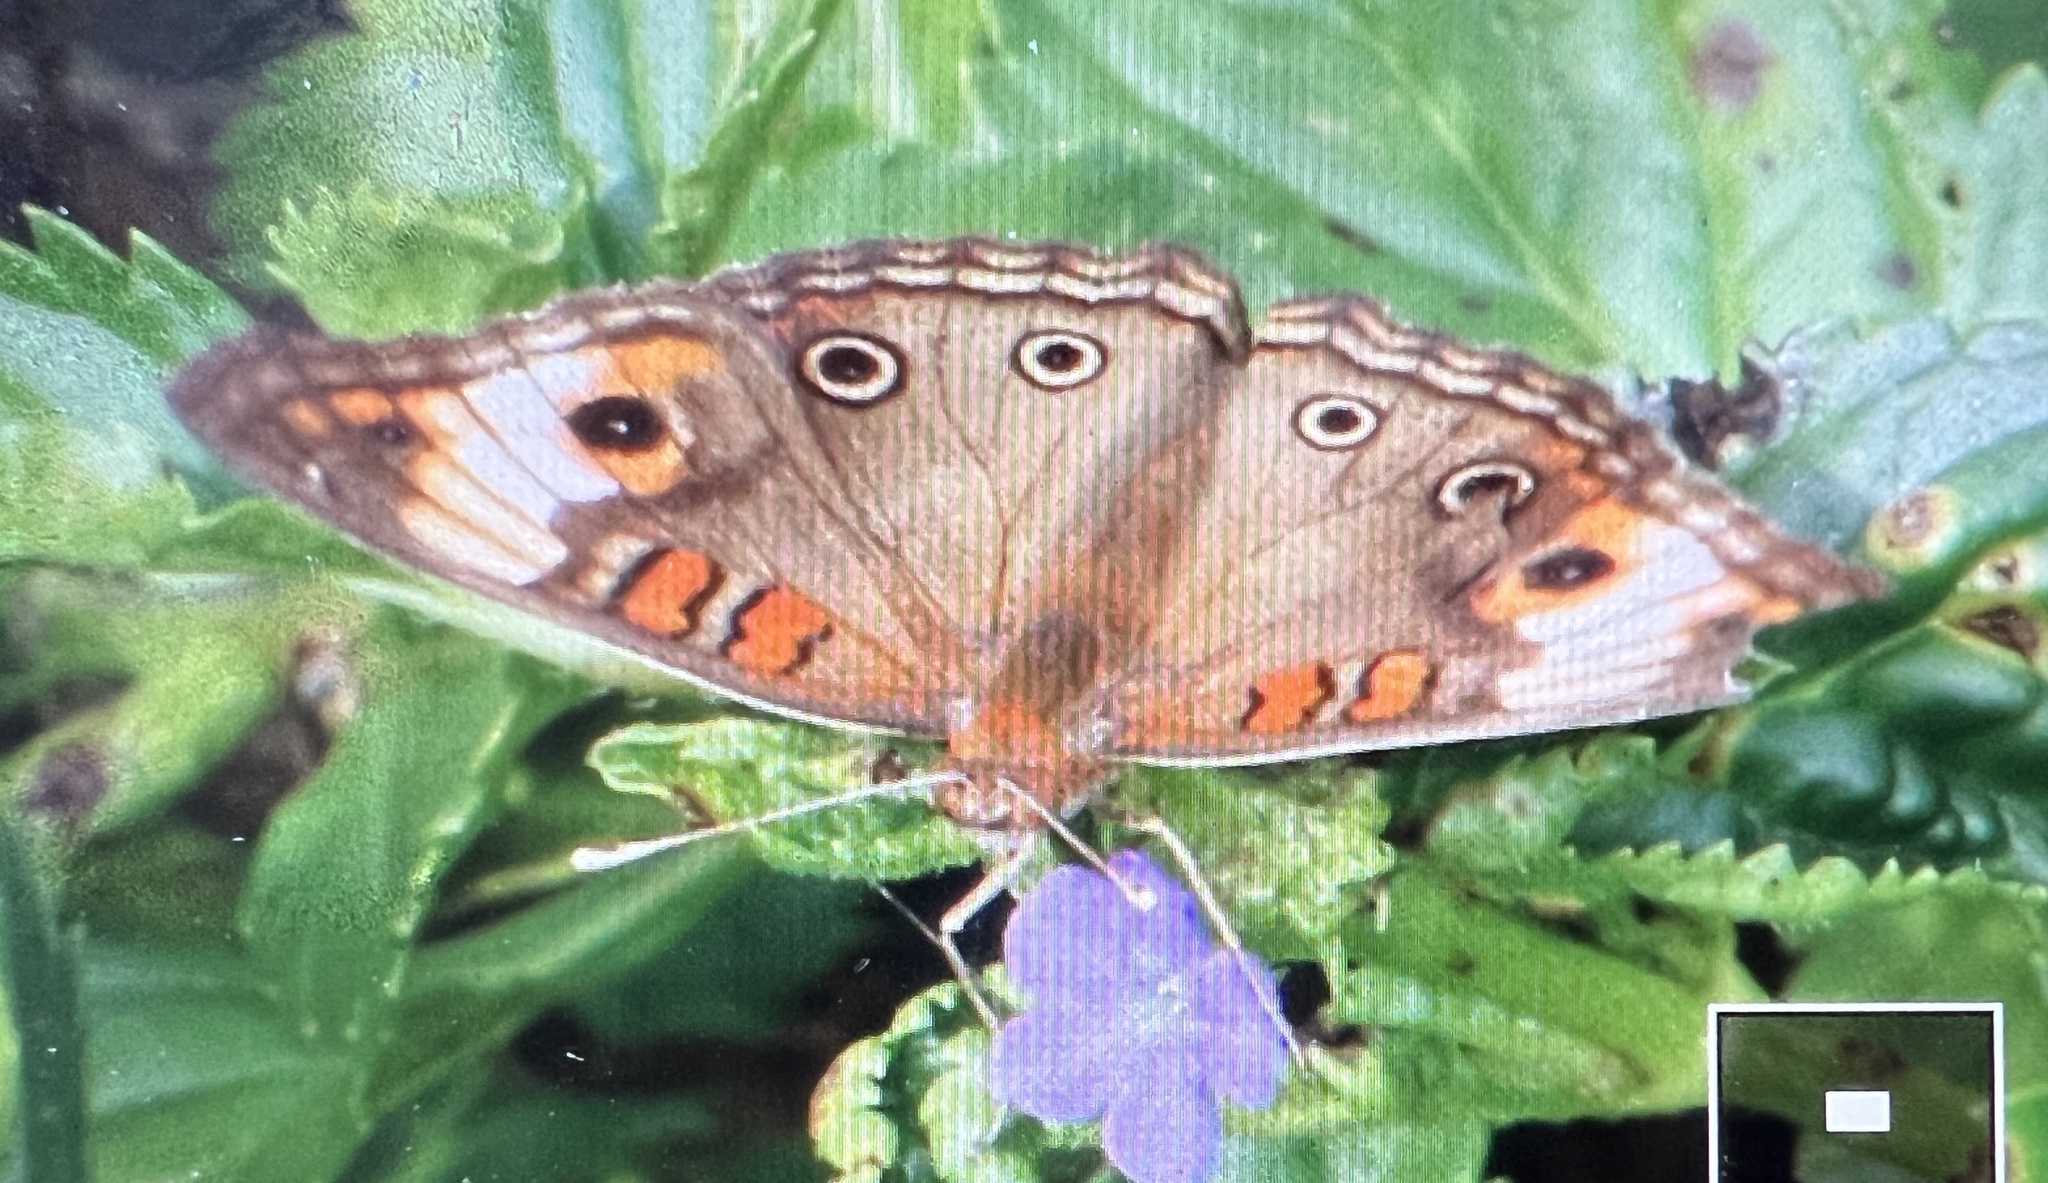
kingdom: Animalia
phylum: Arthropoda
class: Insecta
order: Lepidoptera
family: Nymphalidae
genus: Junonia
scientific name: Junonia lavinia
